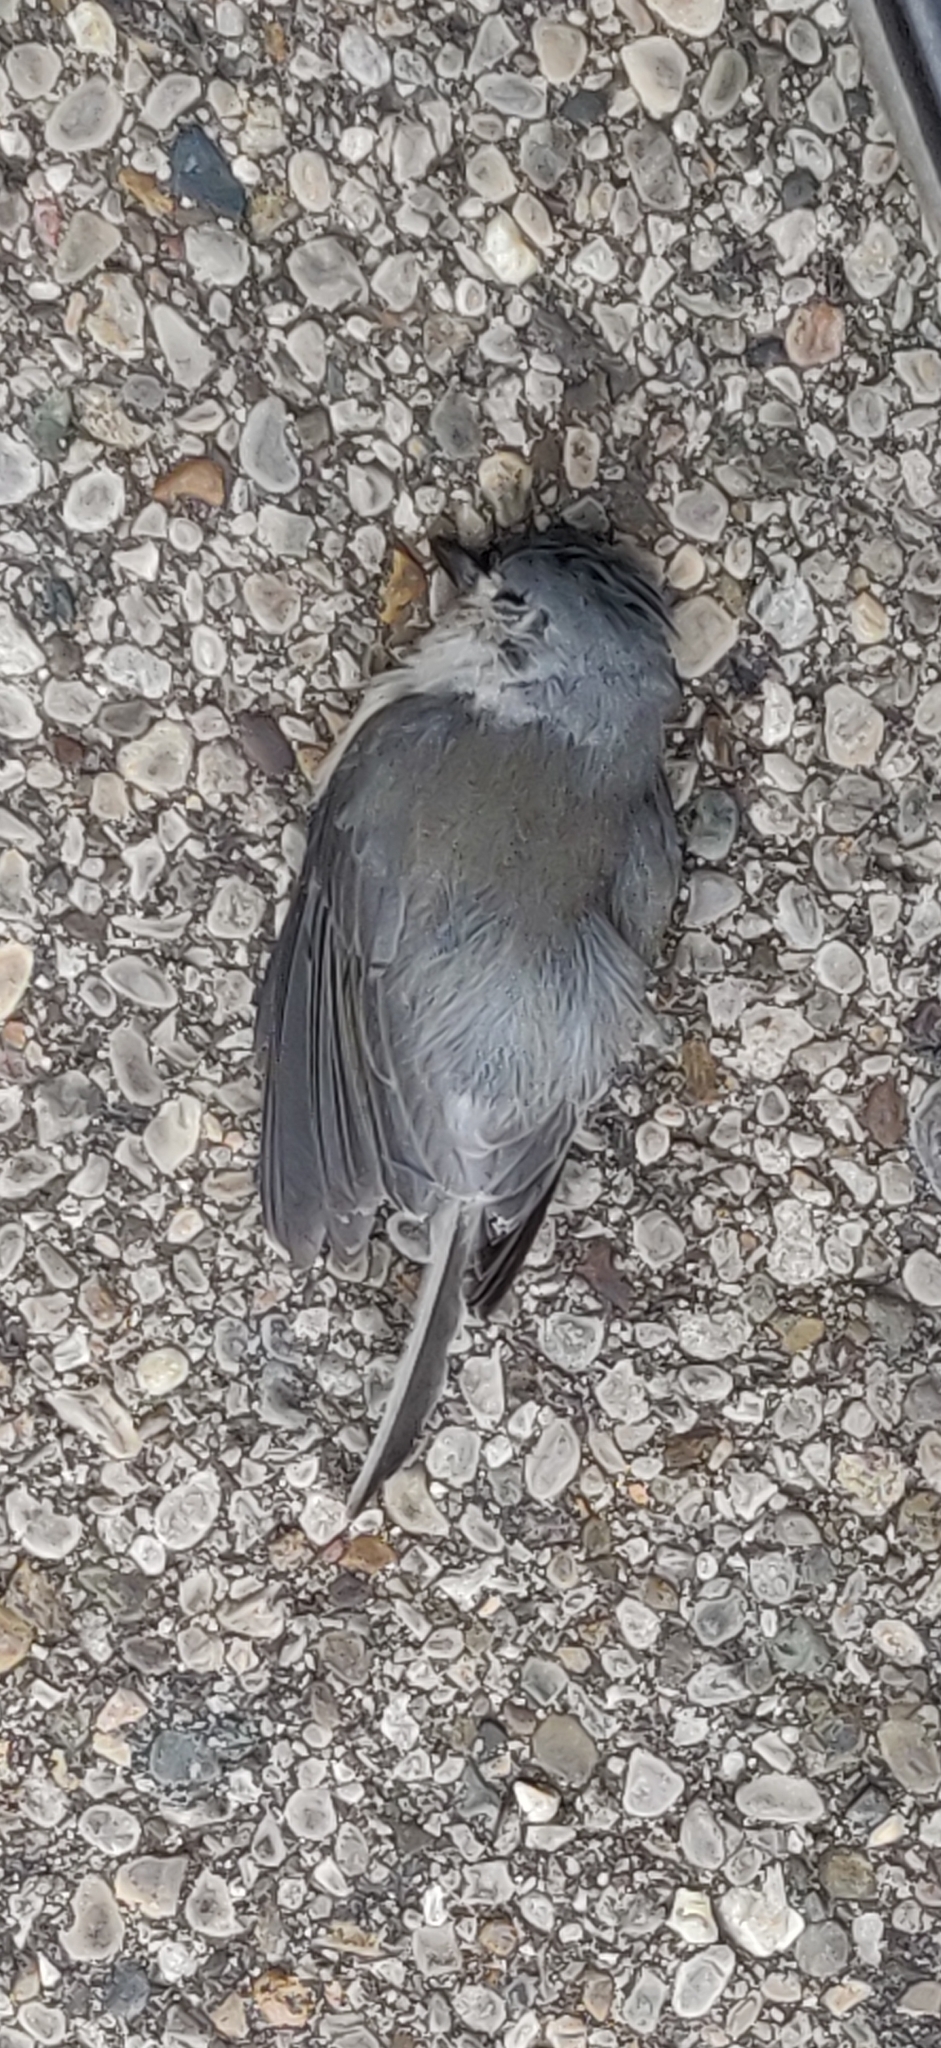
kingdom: Animalia
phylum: Chordata
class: Aves
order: Passeriformes
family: Paridae
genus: Baeolophus
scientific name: Baeolophus bicolor
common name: Tufted titmouse
